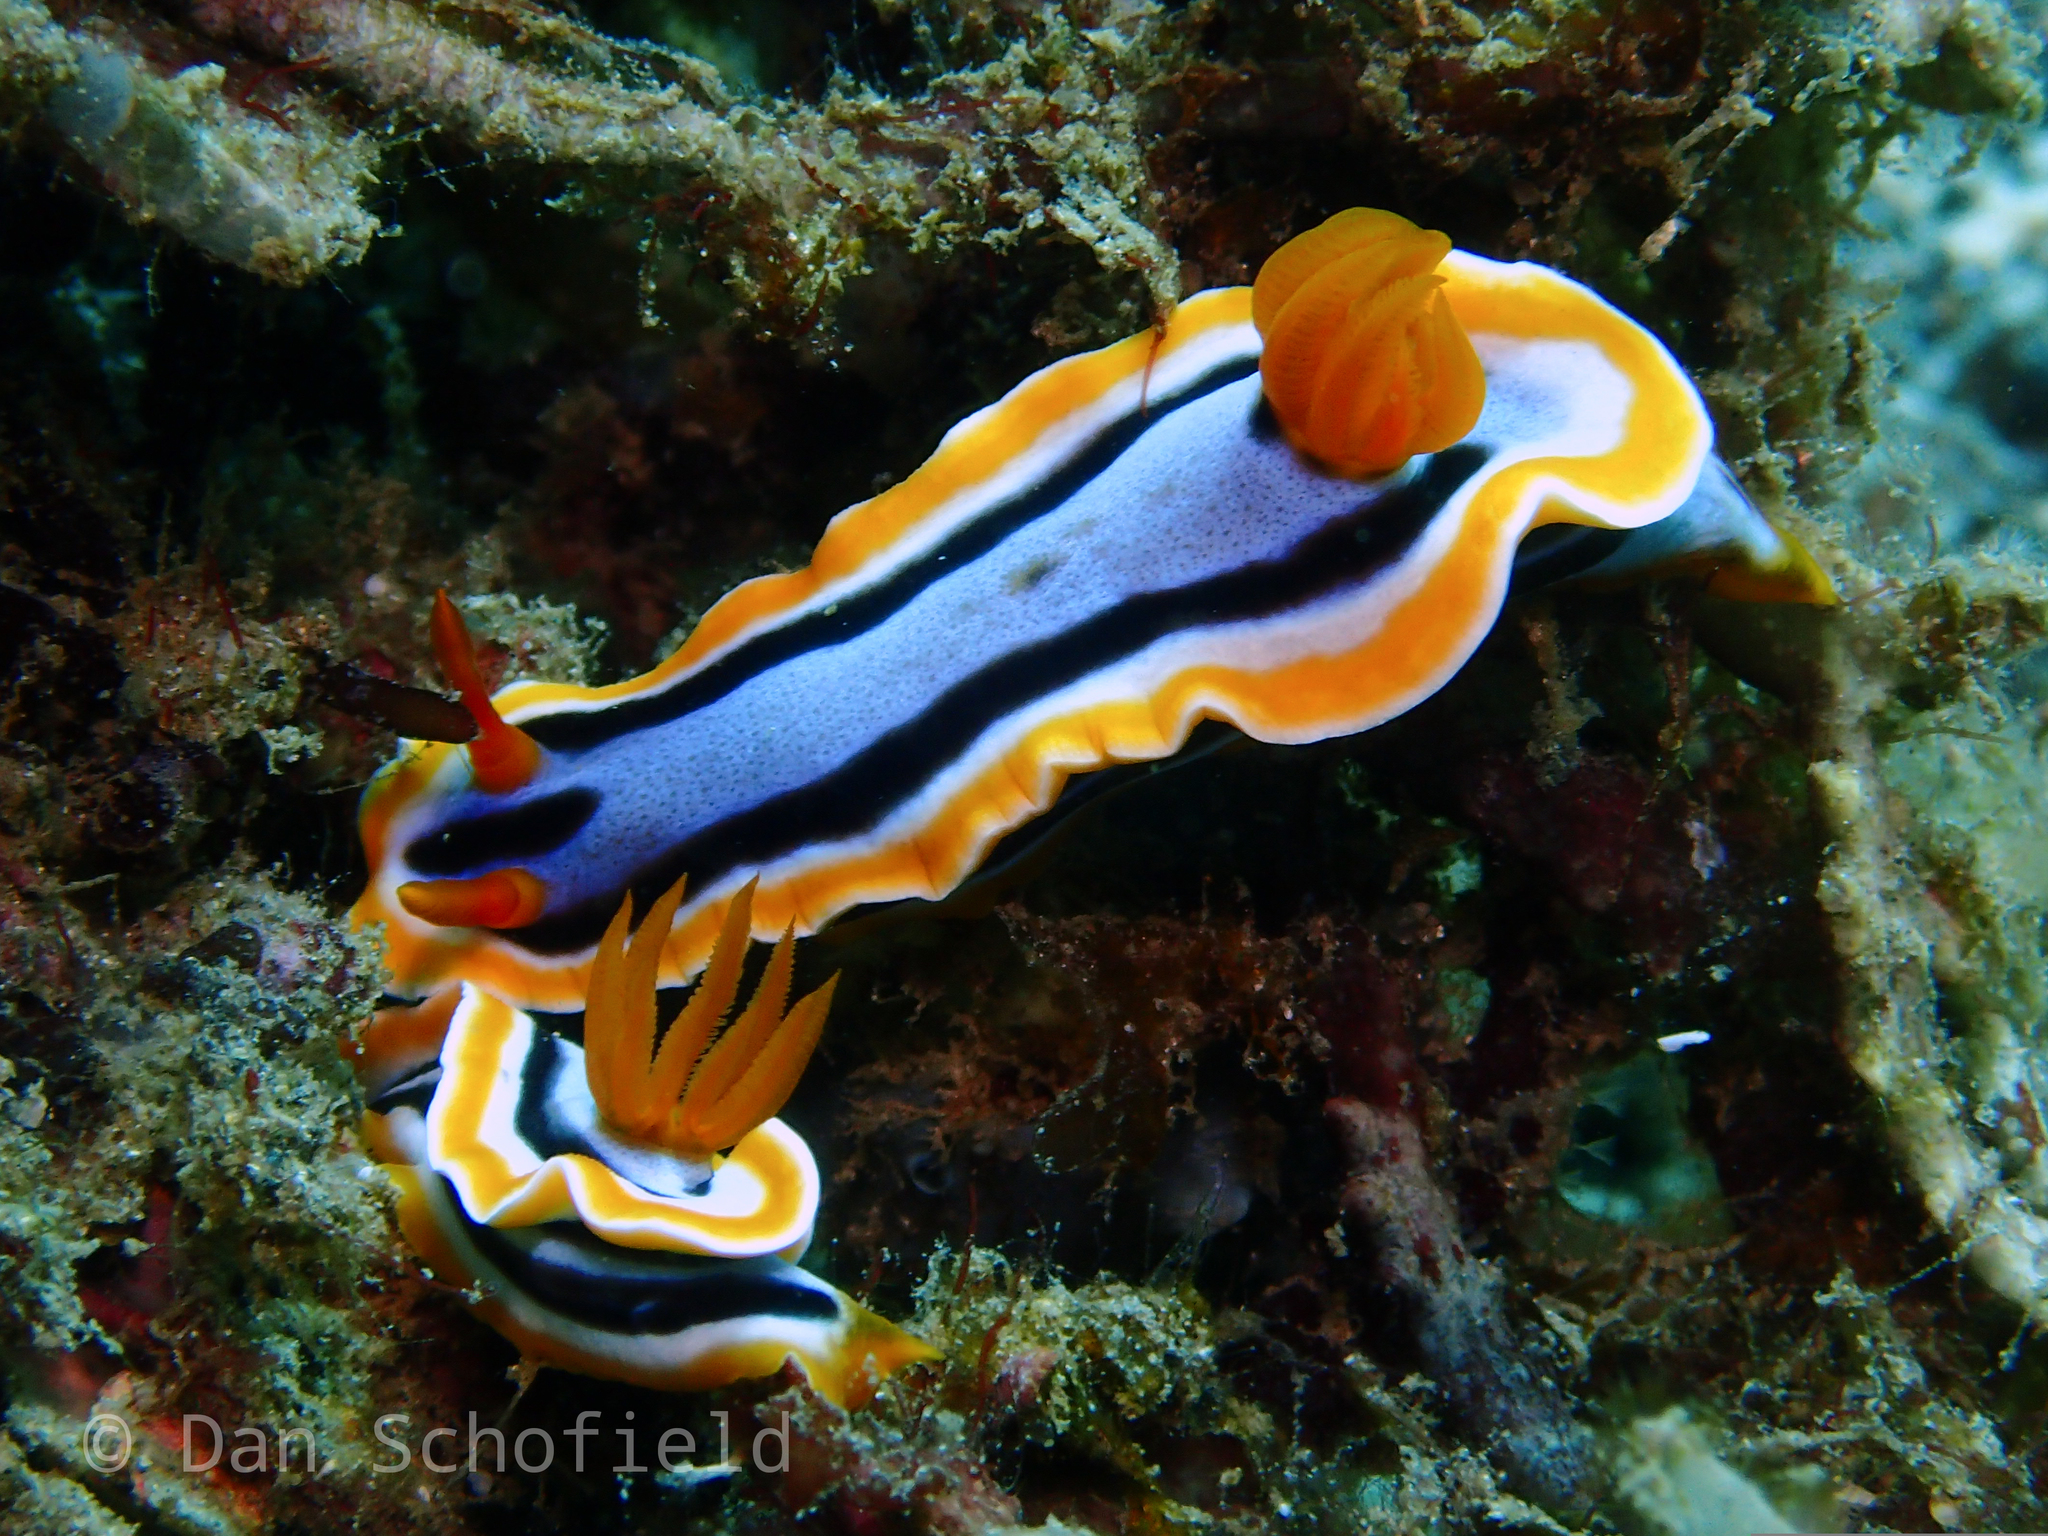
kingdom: Animalia
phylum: Mollusca
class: Gastropoda
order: Nudibranchia
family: Chromodorididae
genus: Chromodoris
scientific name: Chromodoris annae
